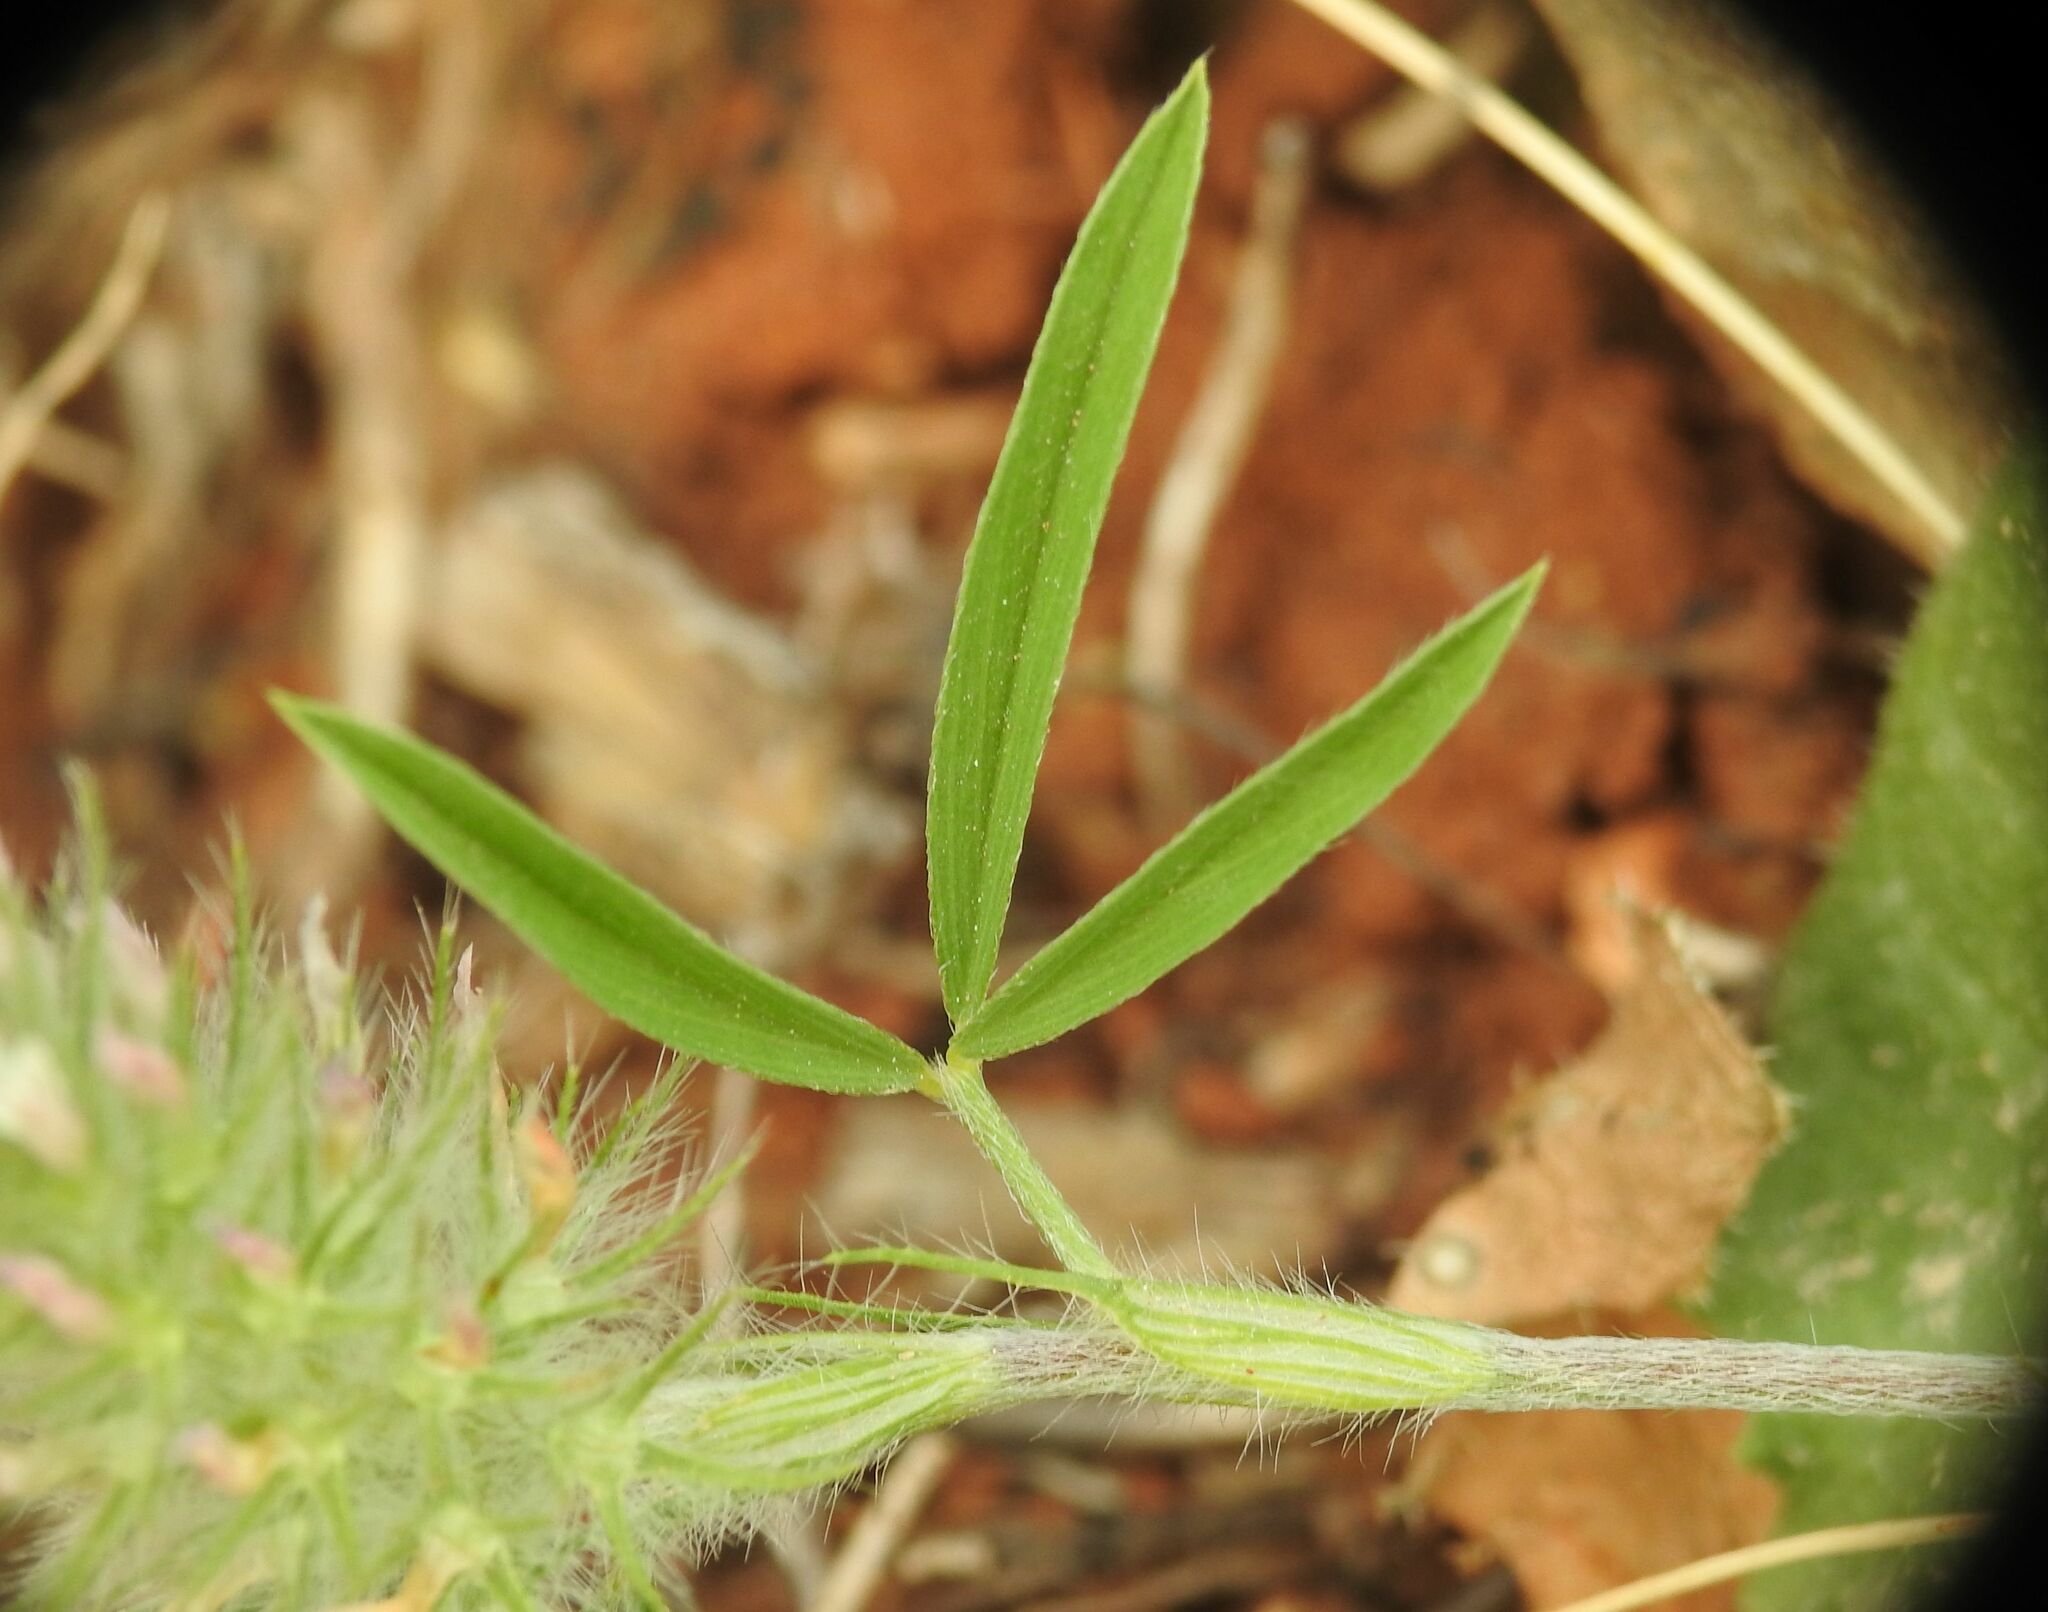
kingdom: Plantae
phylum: Tracheophyta
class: Magnoliopsida
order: Fabales
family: Fabaceae
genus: Trifolium
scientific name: Trifolium infamia-ponertii
